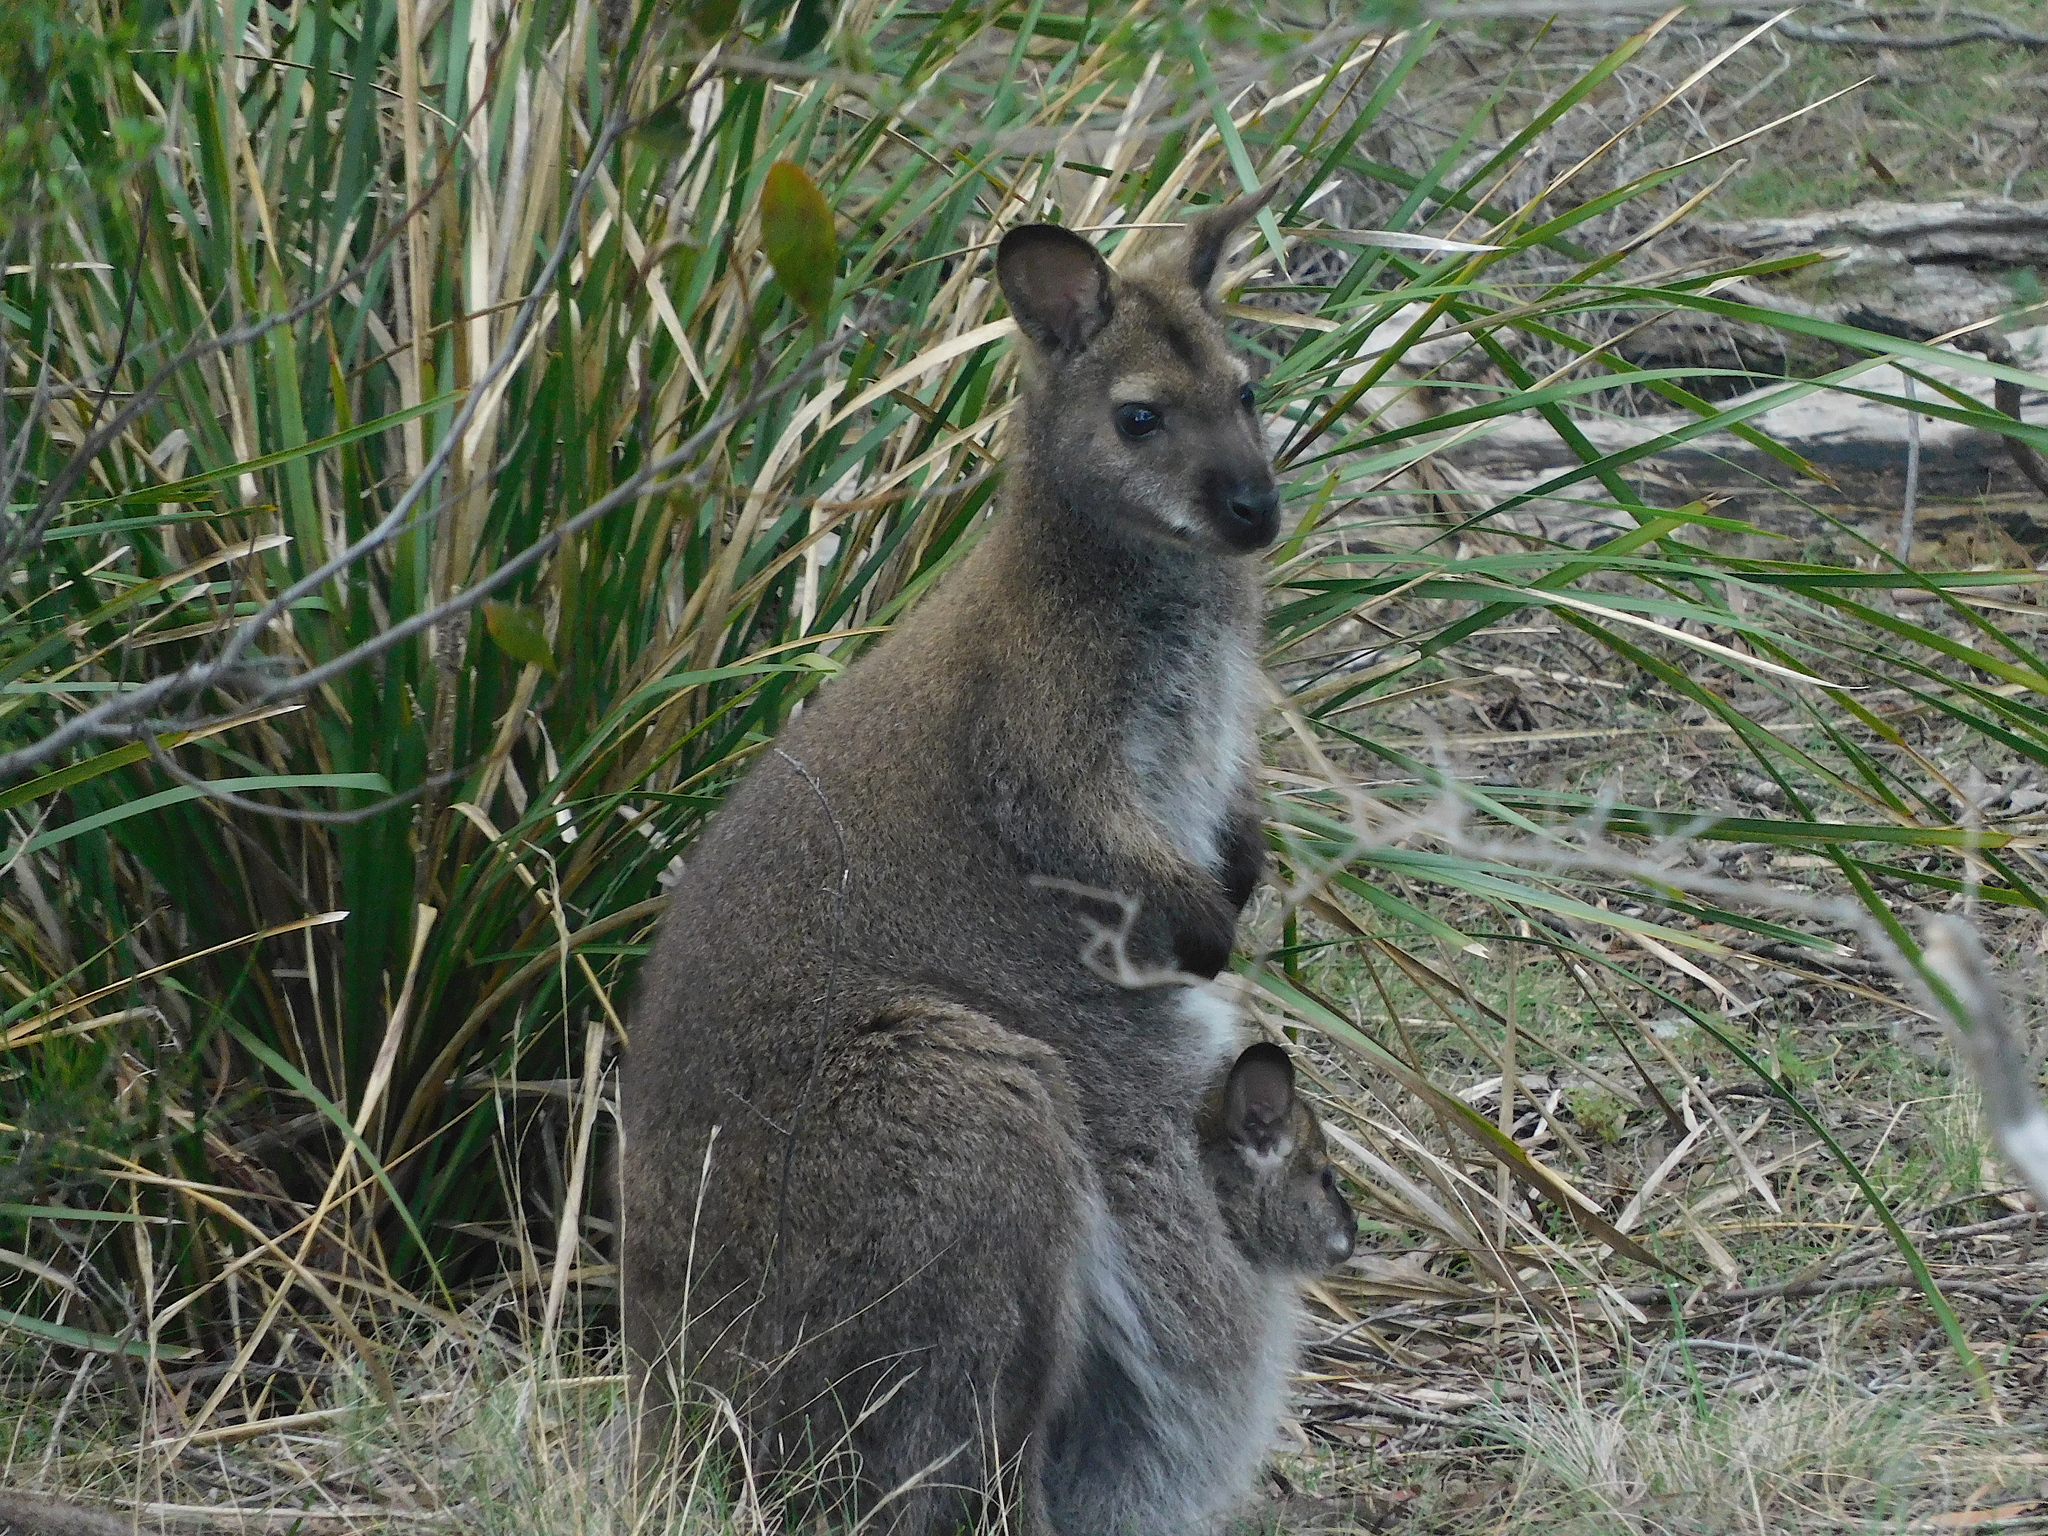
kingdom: Animalia
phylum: Chordata
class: Mammalia
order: Diprotodontia
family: Macropodidae
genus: Notamacropus
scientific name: Notamacropus rufogriseus
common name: Red-necked wallaby
